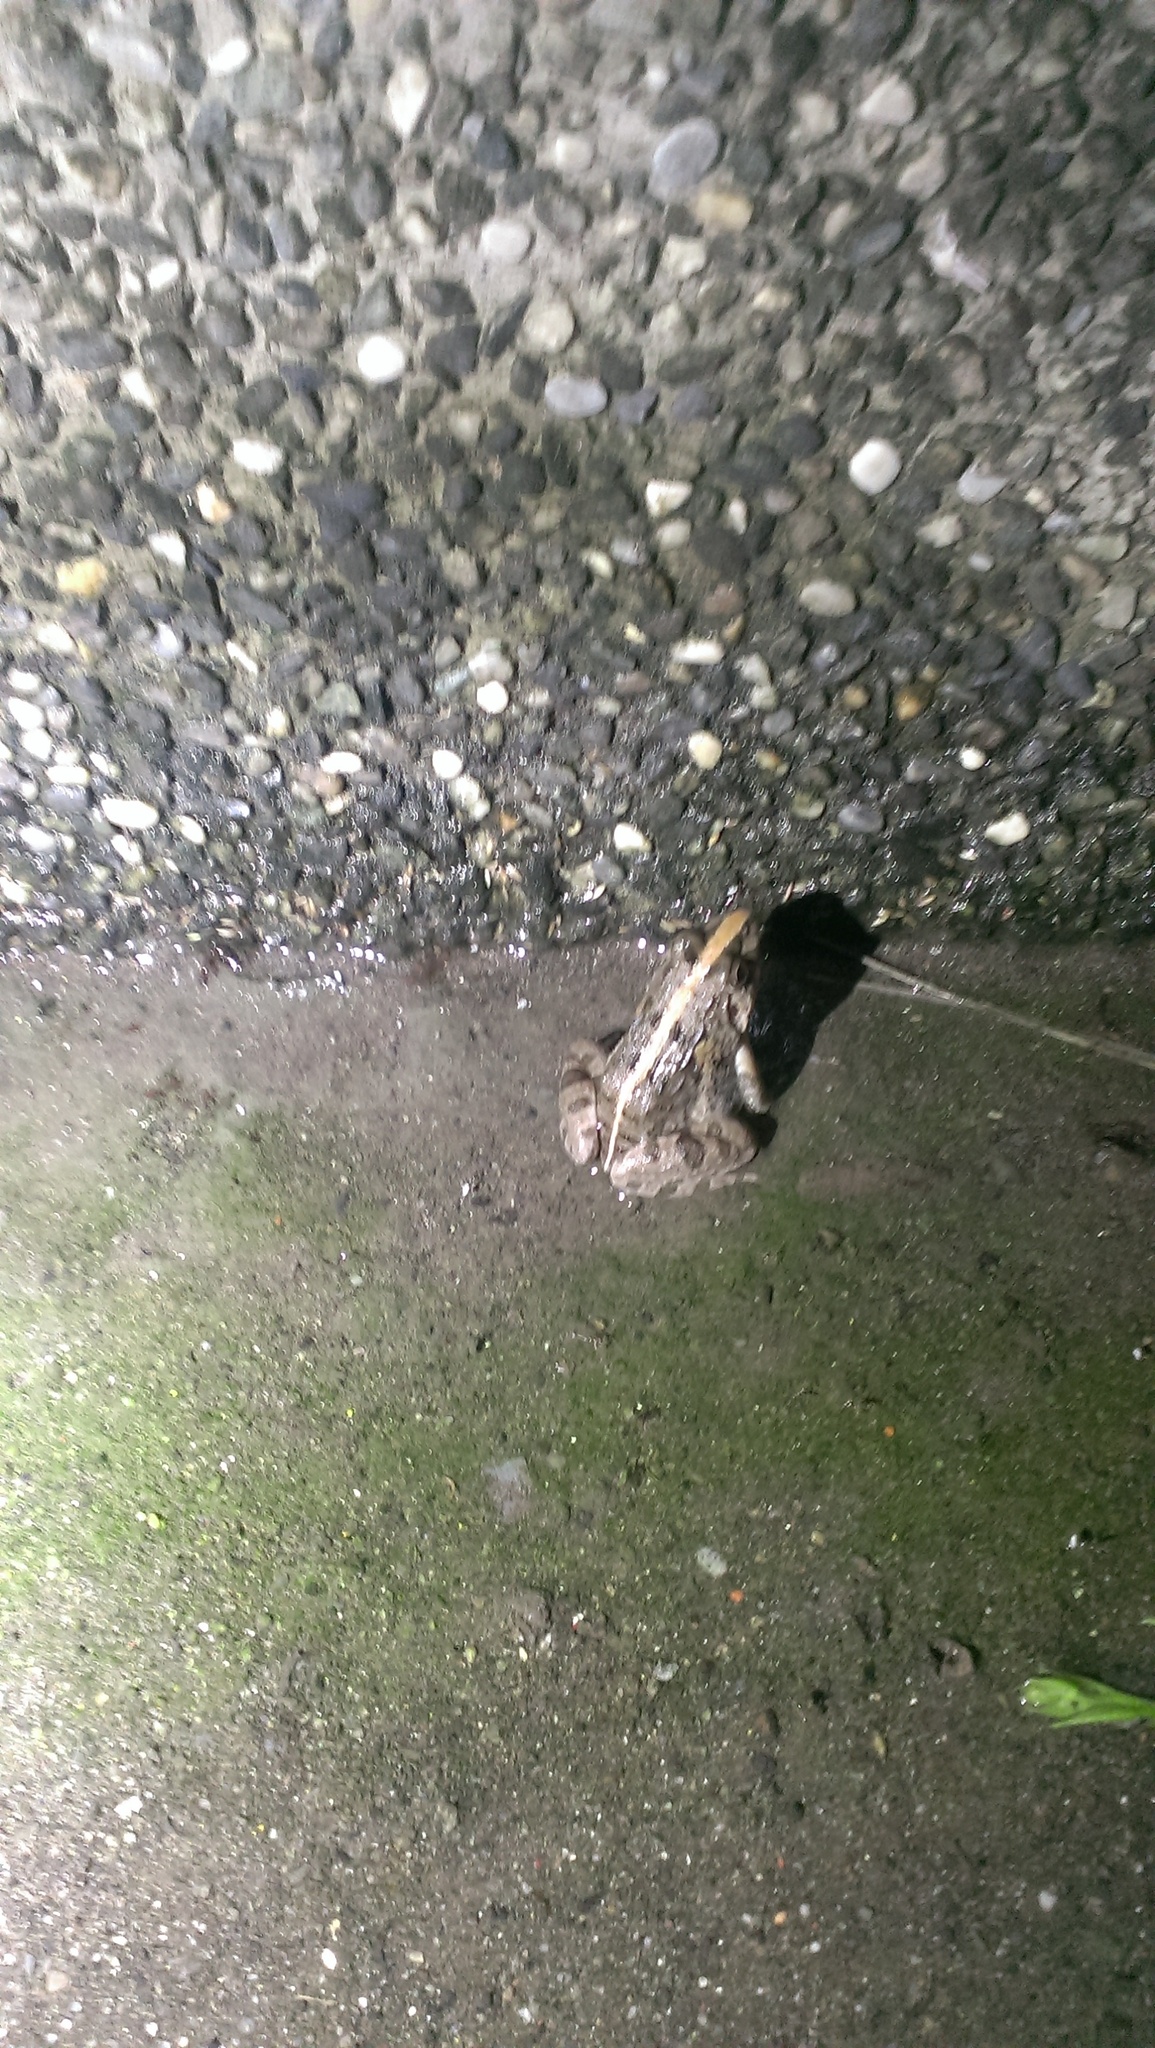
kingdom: Animalia
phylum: Chordata
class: Amphibia
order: Anura
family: Dicroglossidae
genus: Fejervarya
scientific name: Fejervarya limnocharis
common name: Asian grass frog/common pond frog/field frog/grass frog/indian rice frog
